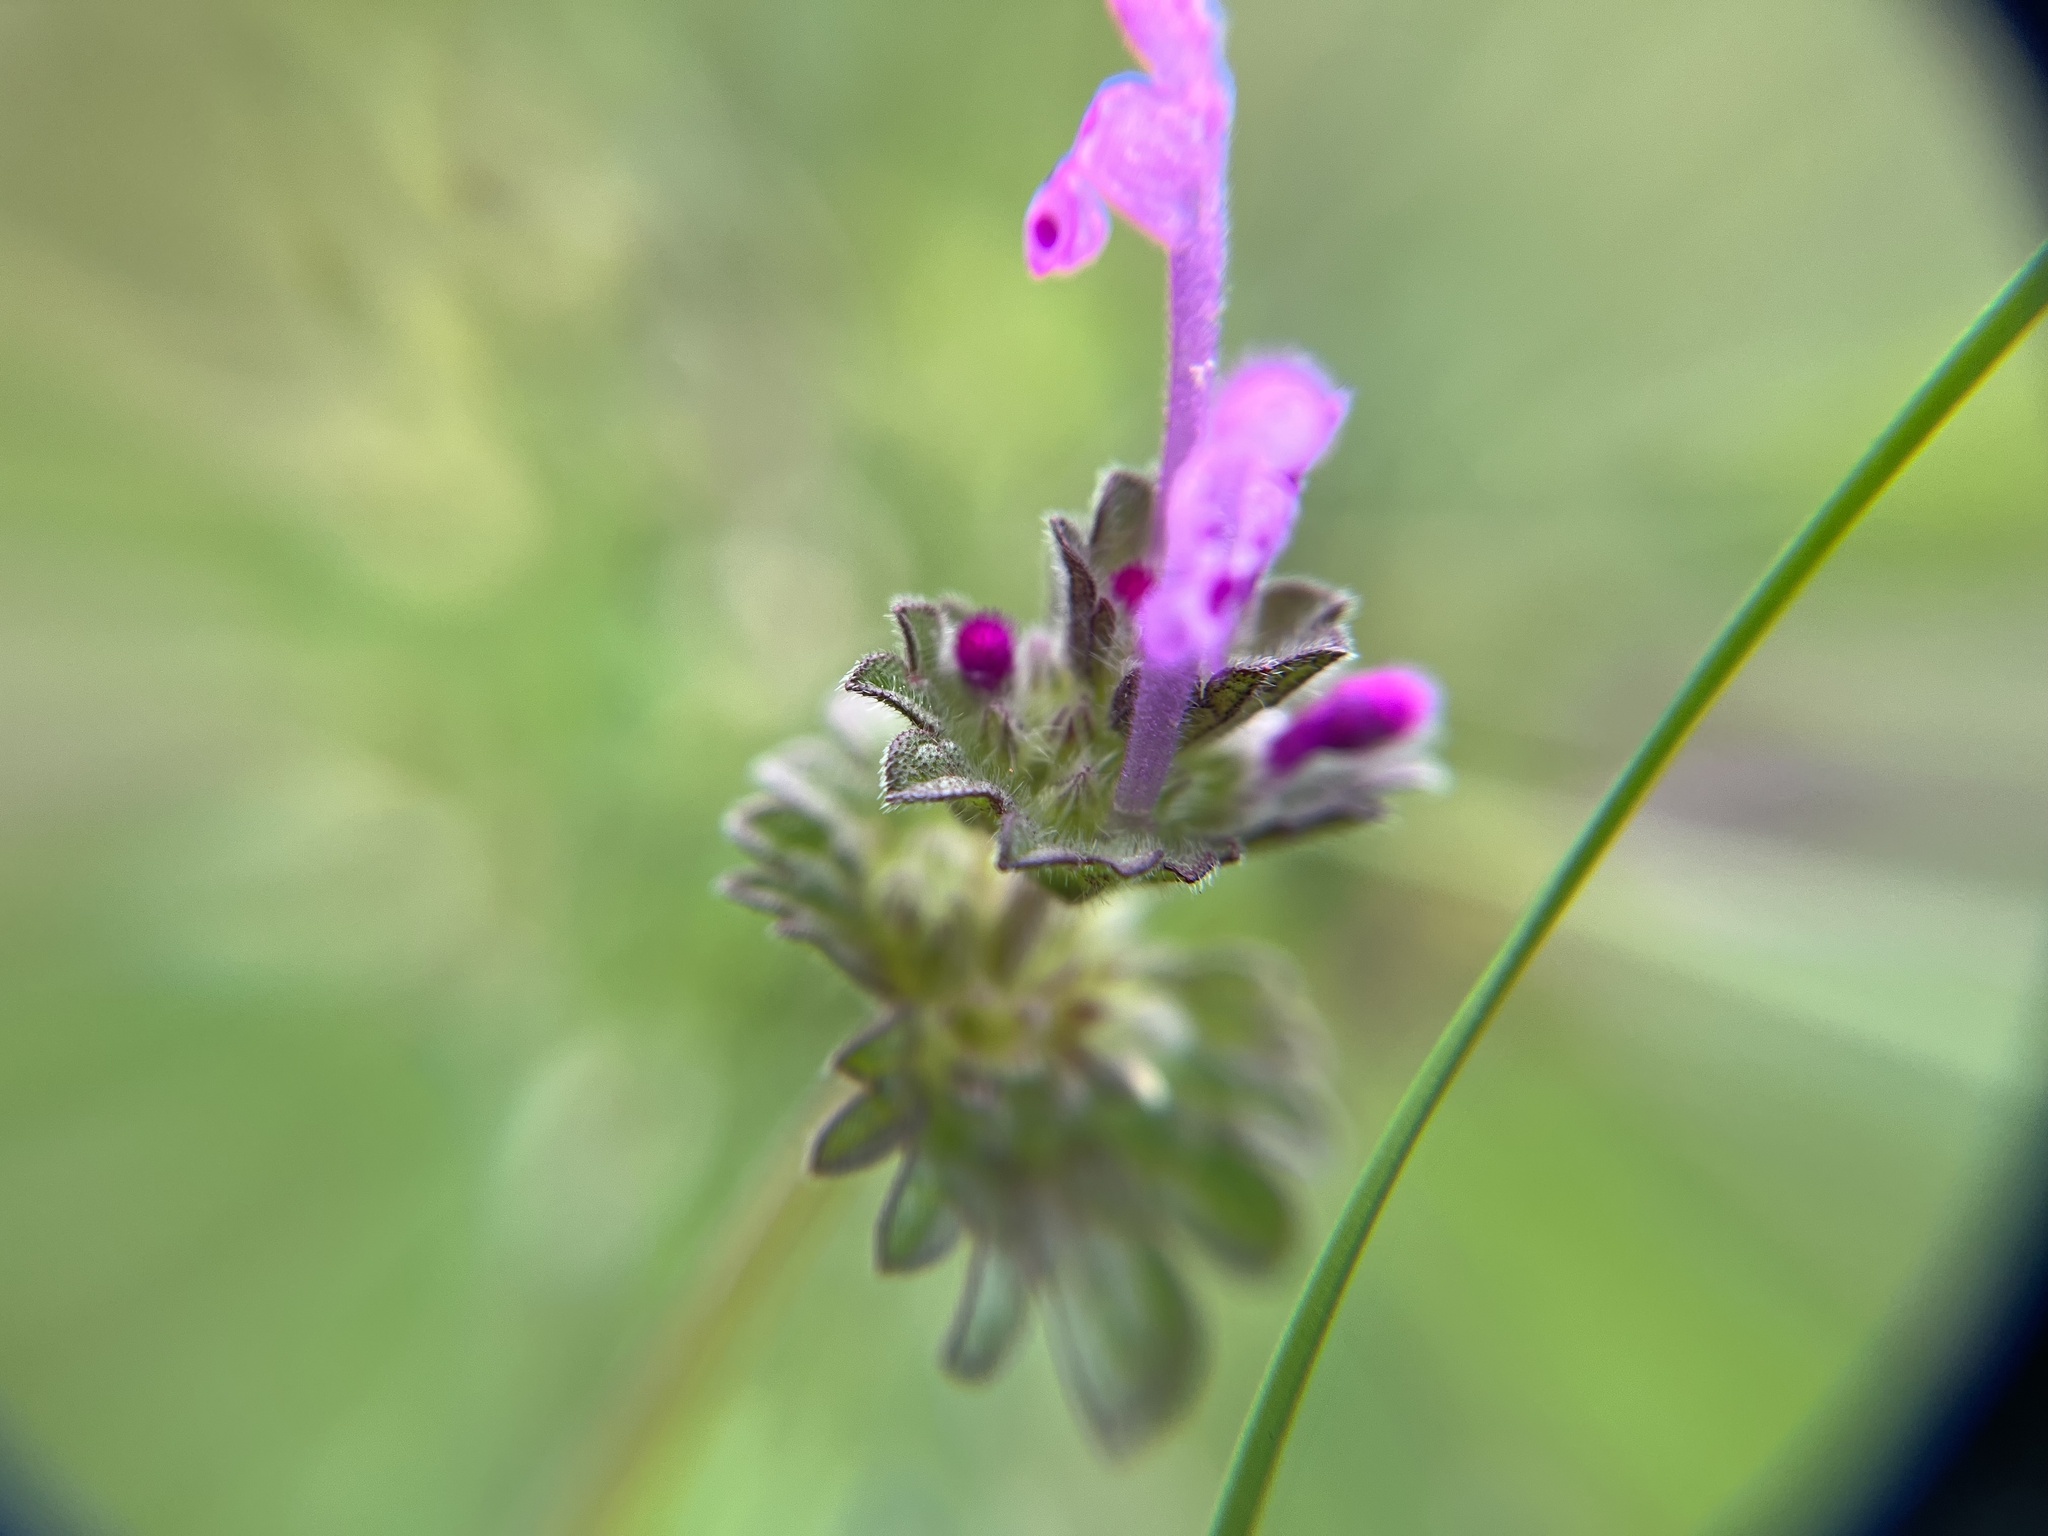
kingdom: Plantae
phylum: Tracheophyta
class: Magnoliopsida
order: Lamiales
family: Lamiaceae
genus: Lamium
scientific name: Lamium amplexicaule
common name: Henbit dead-nettle
